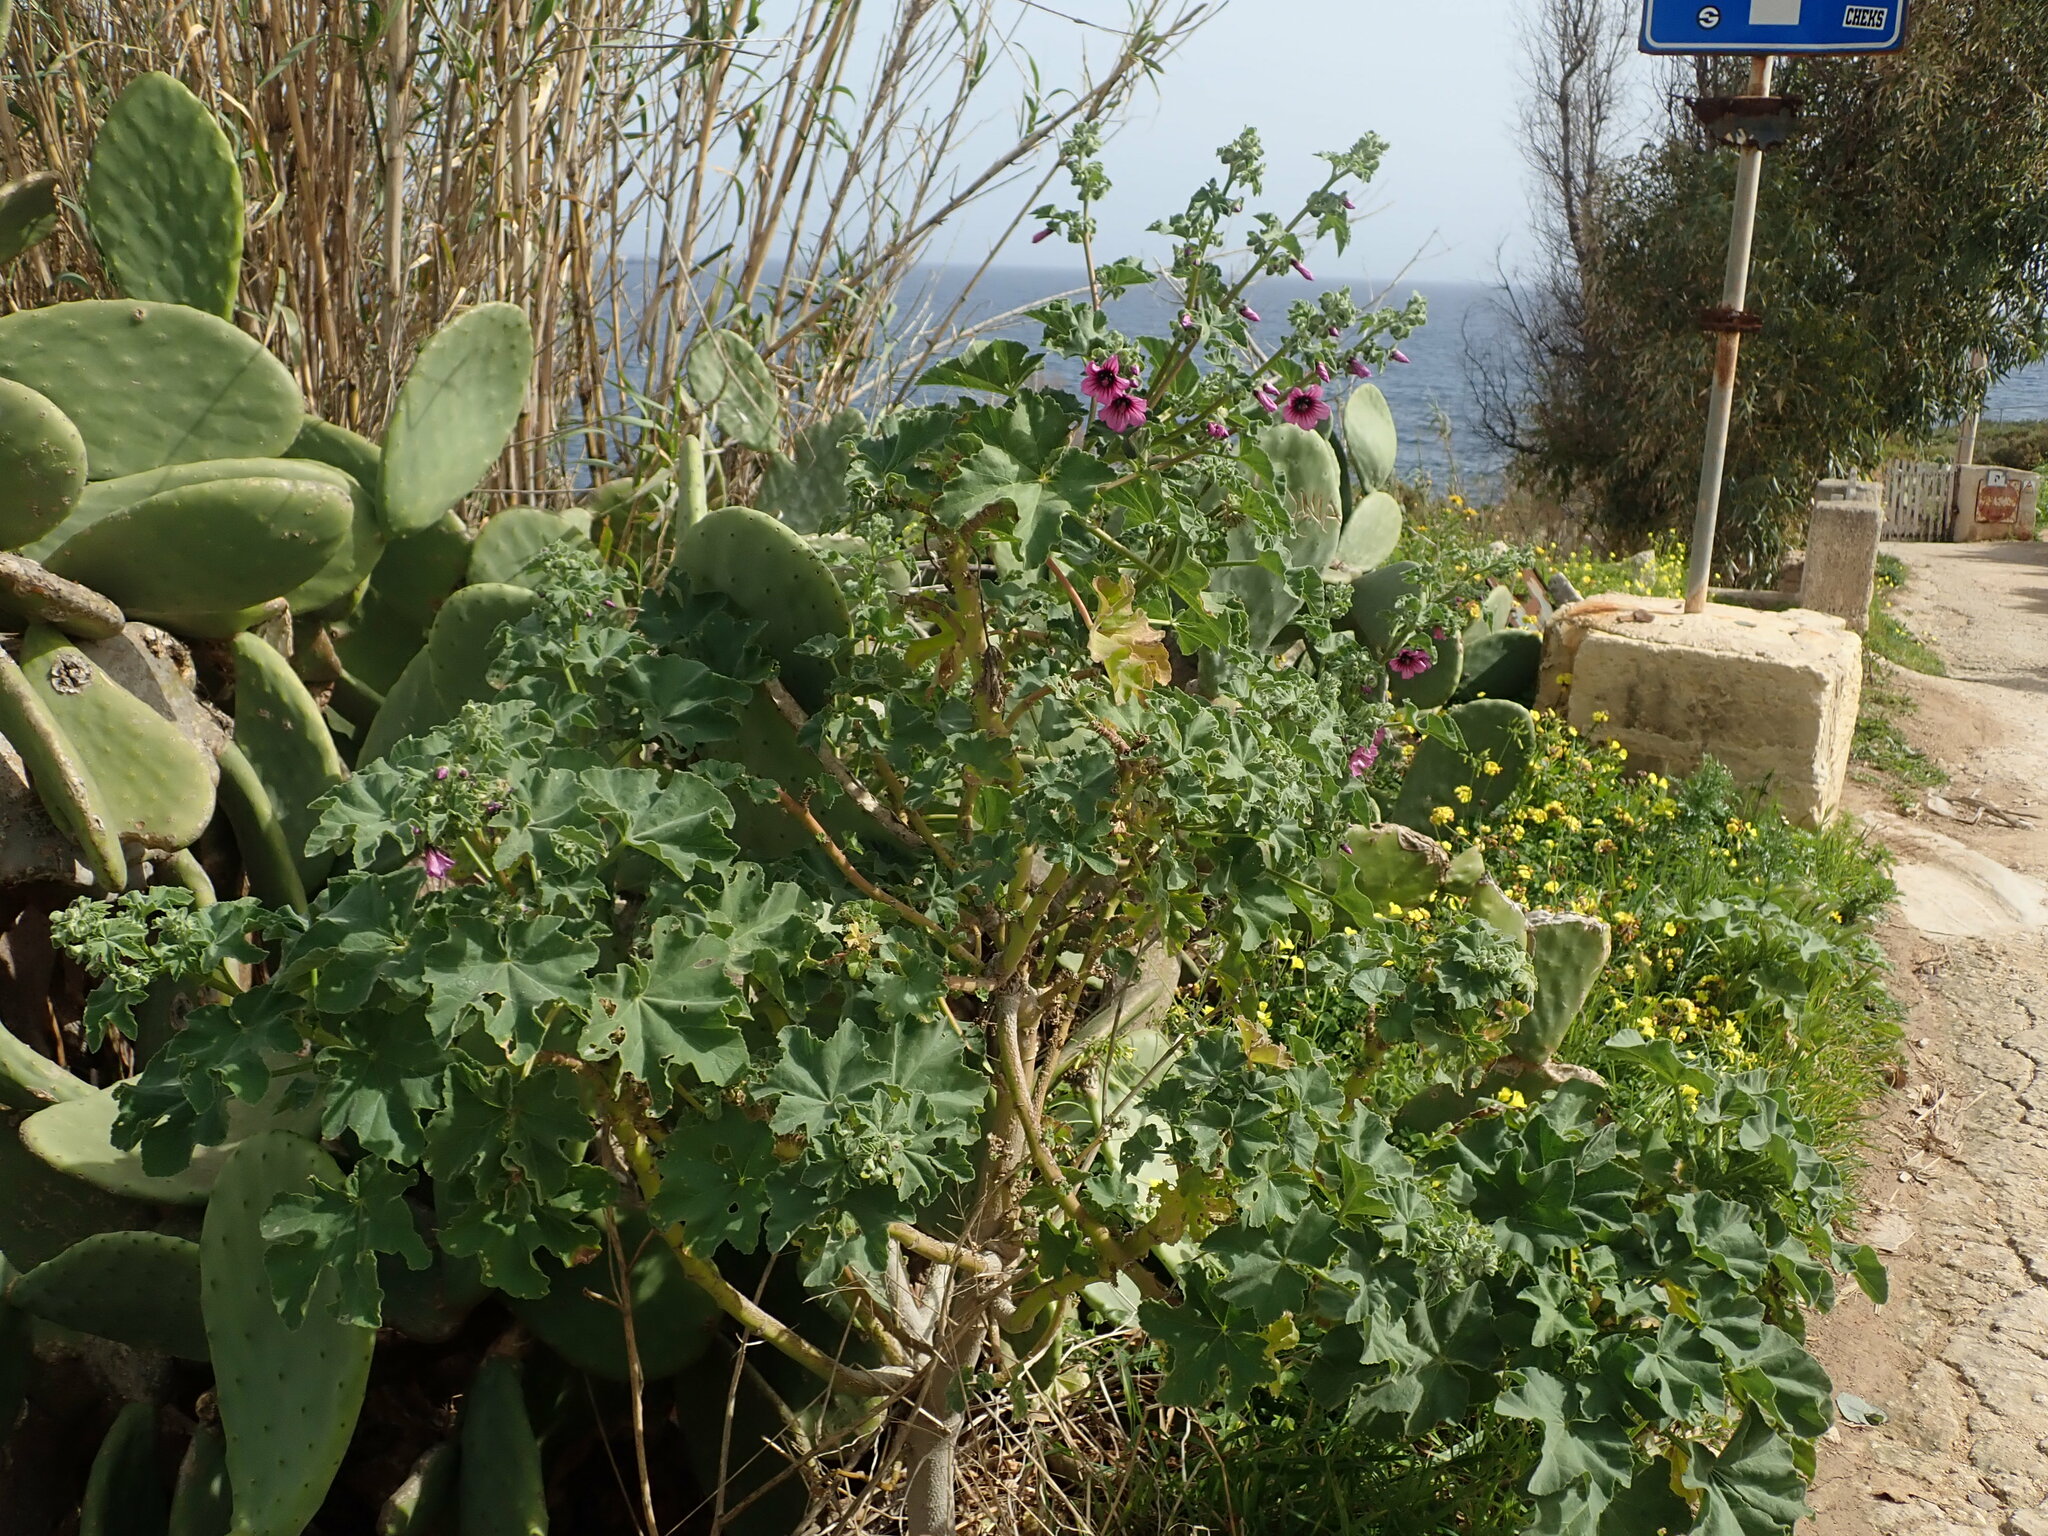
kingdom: Plantae
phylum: Tracheophyta
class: Magnoliopsida
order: Malvales
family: Malvaceae
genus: Malva
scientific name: Malva arborea
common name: Tree mallow
